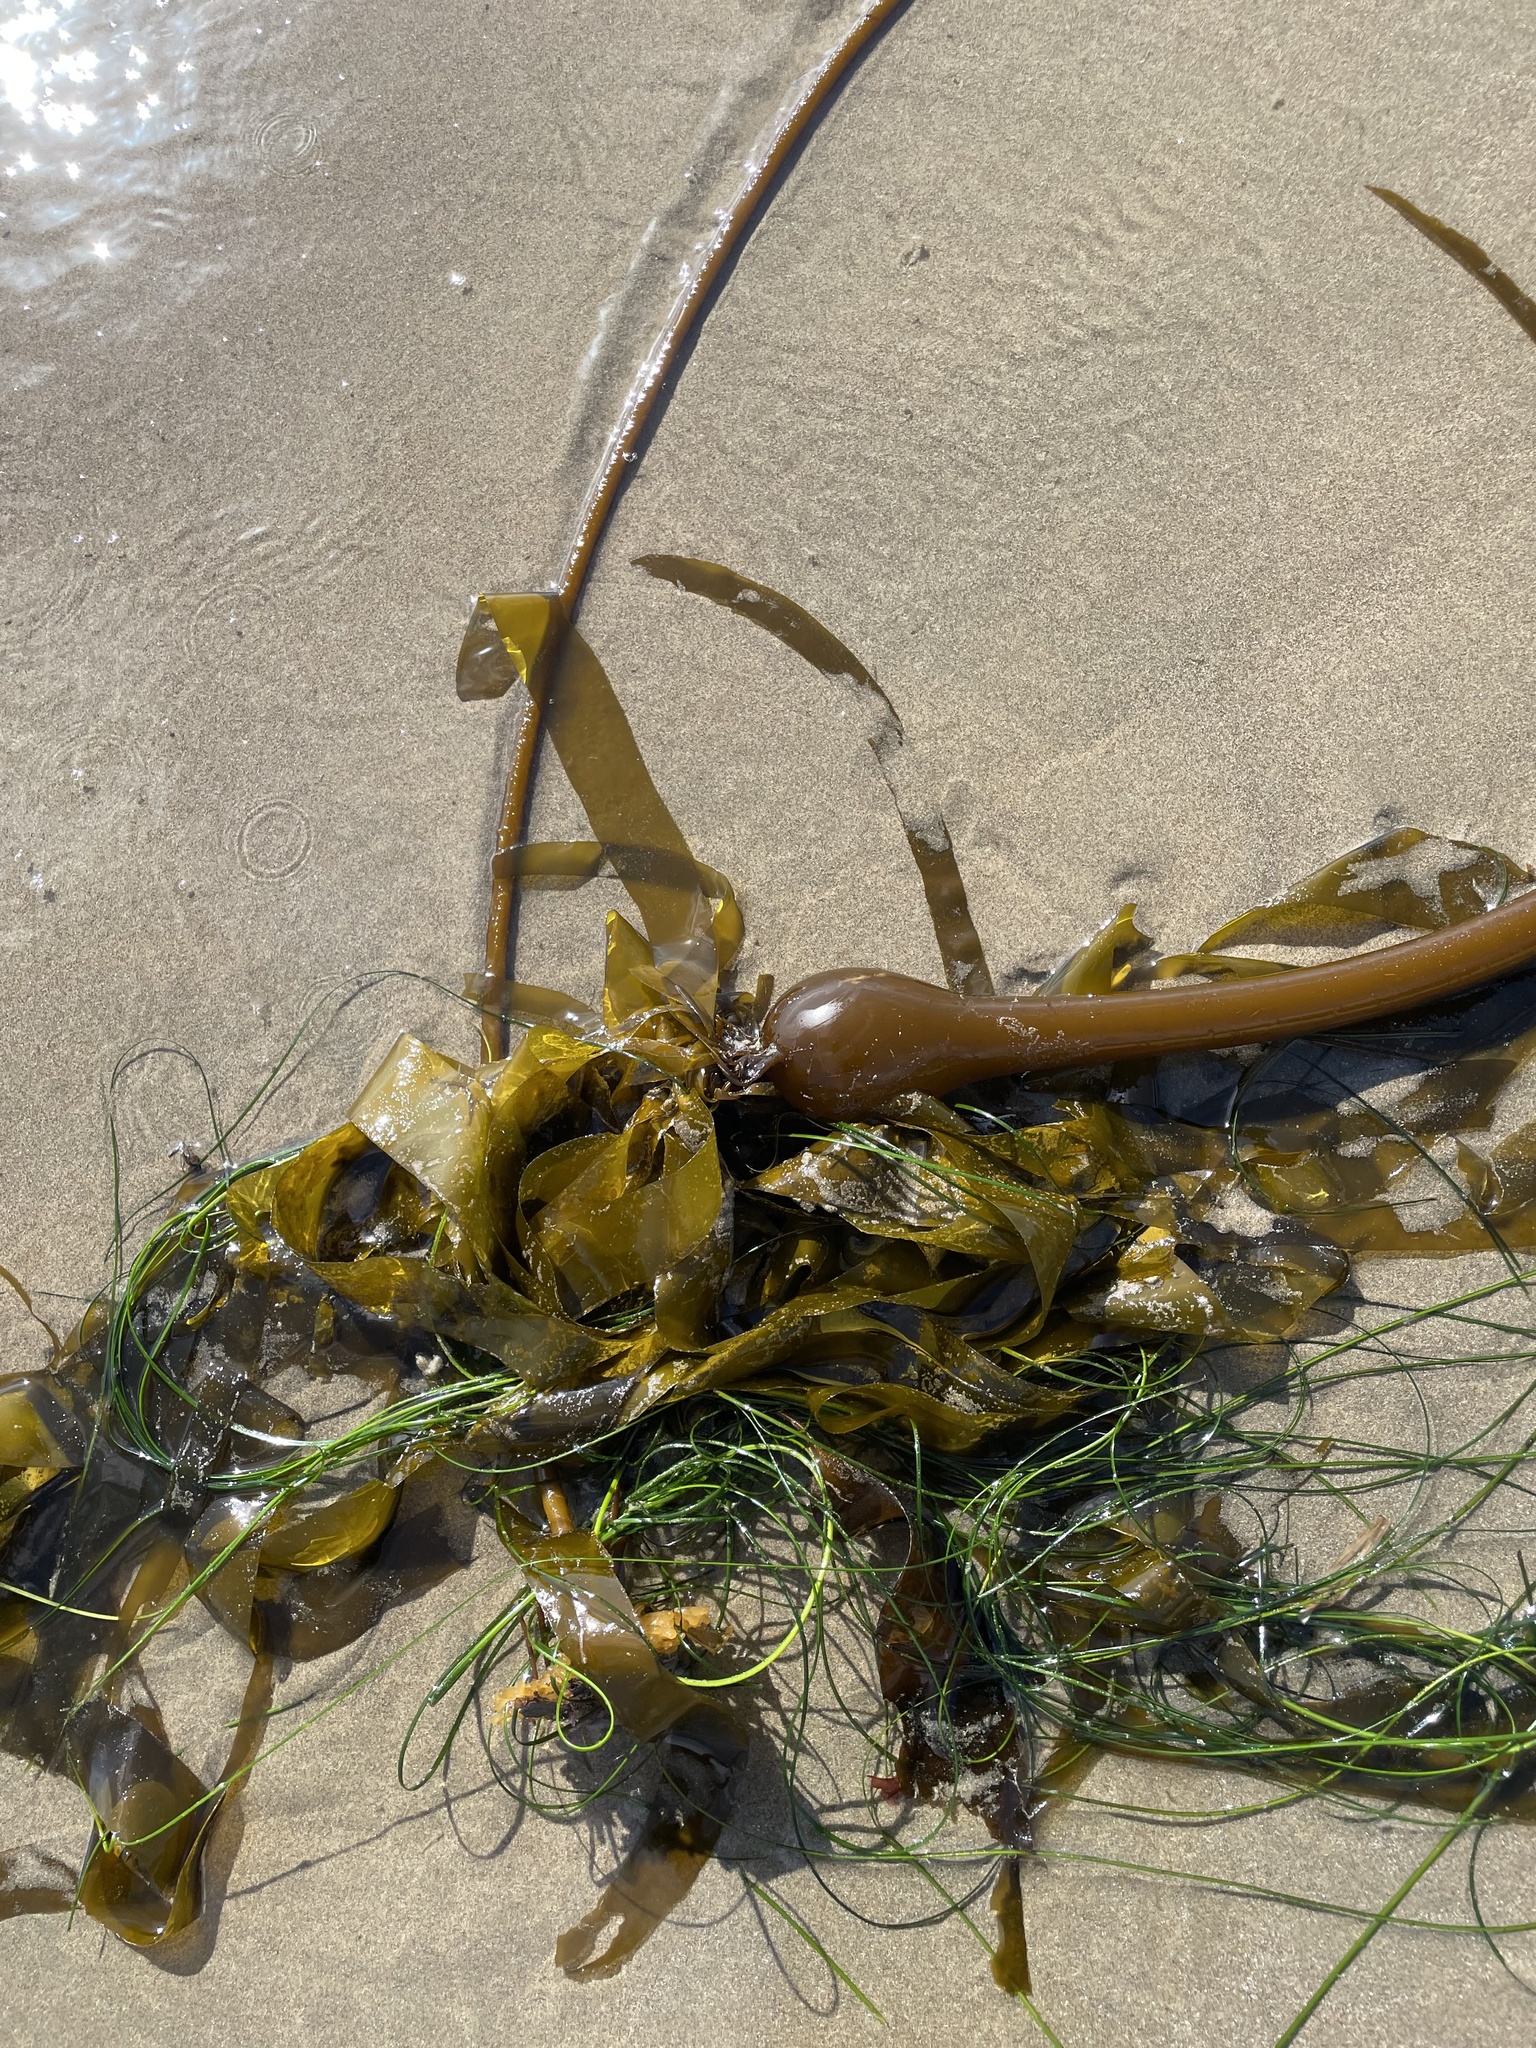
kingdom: Chromista
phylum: Ochrophyta
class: Phaeophyceae
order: Laminariales
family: Laminariaceae
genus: Nereocystis
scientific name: Nereocystis luetkeana
